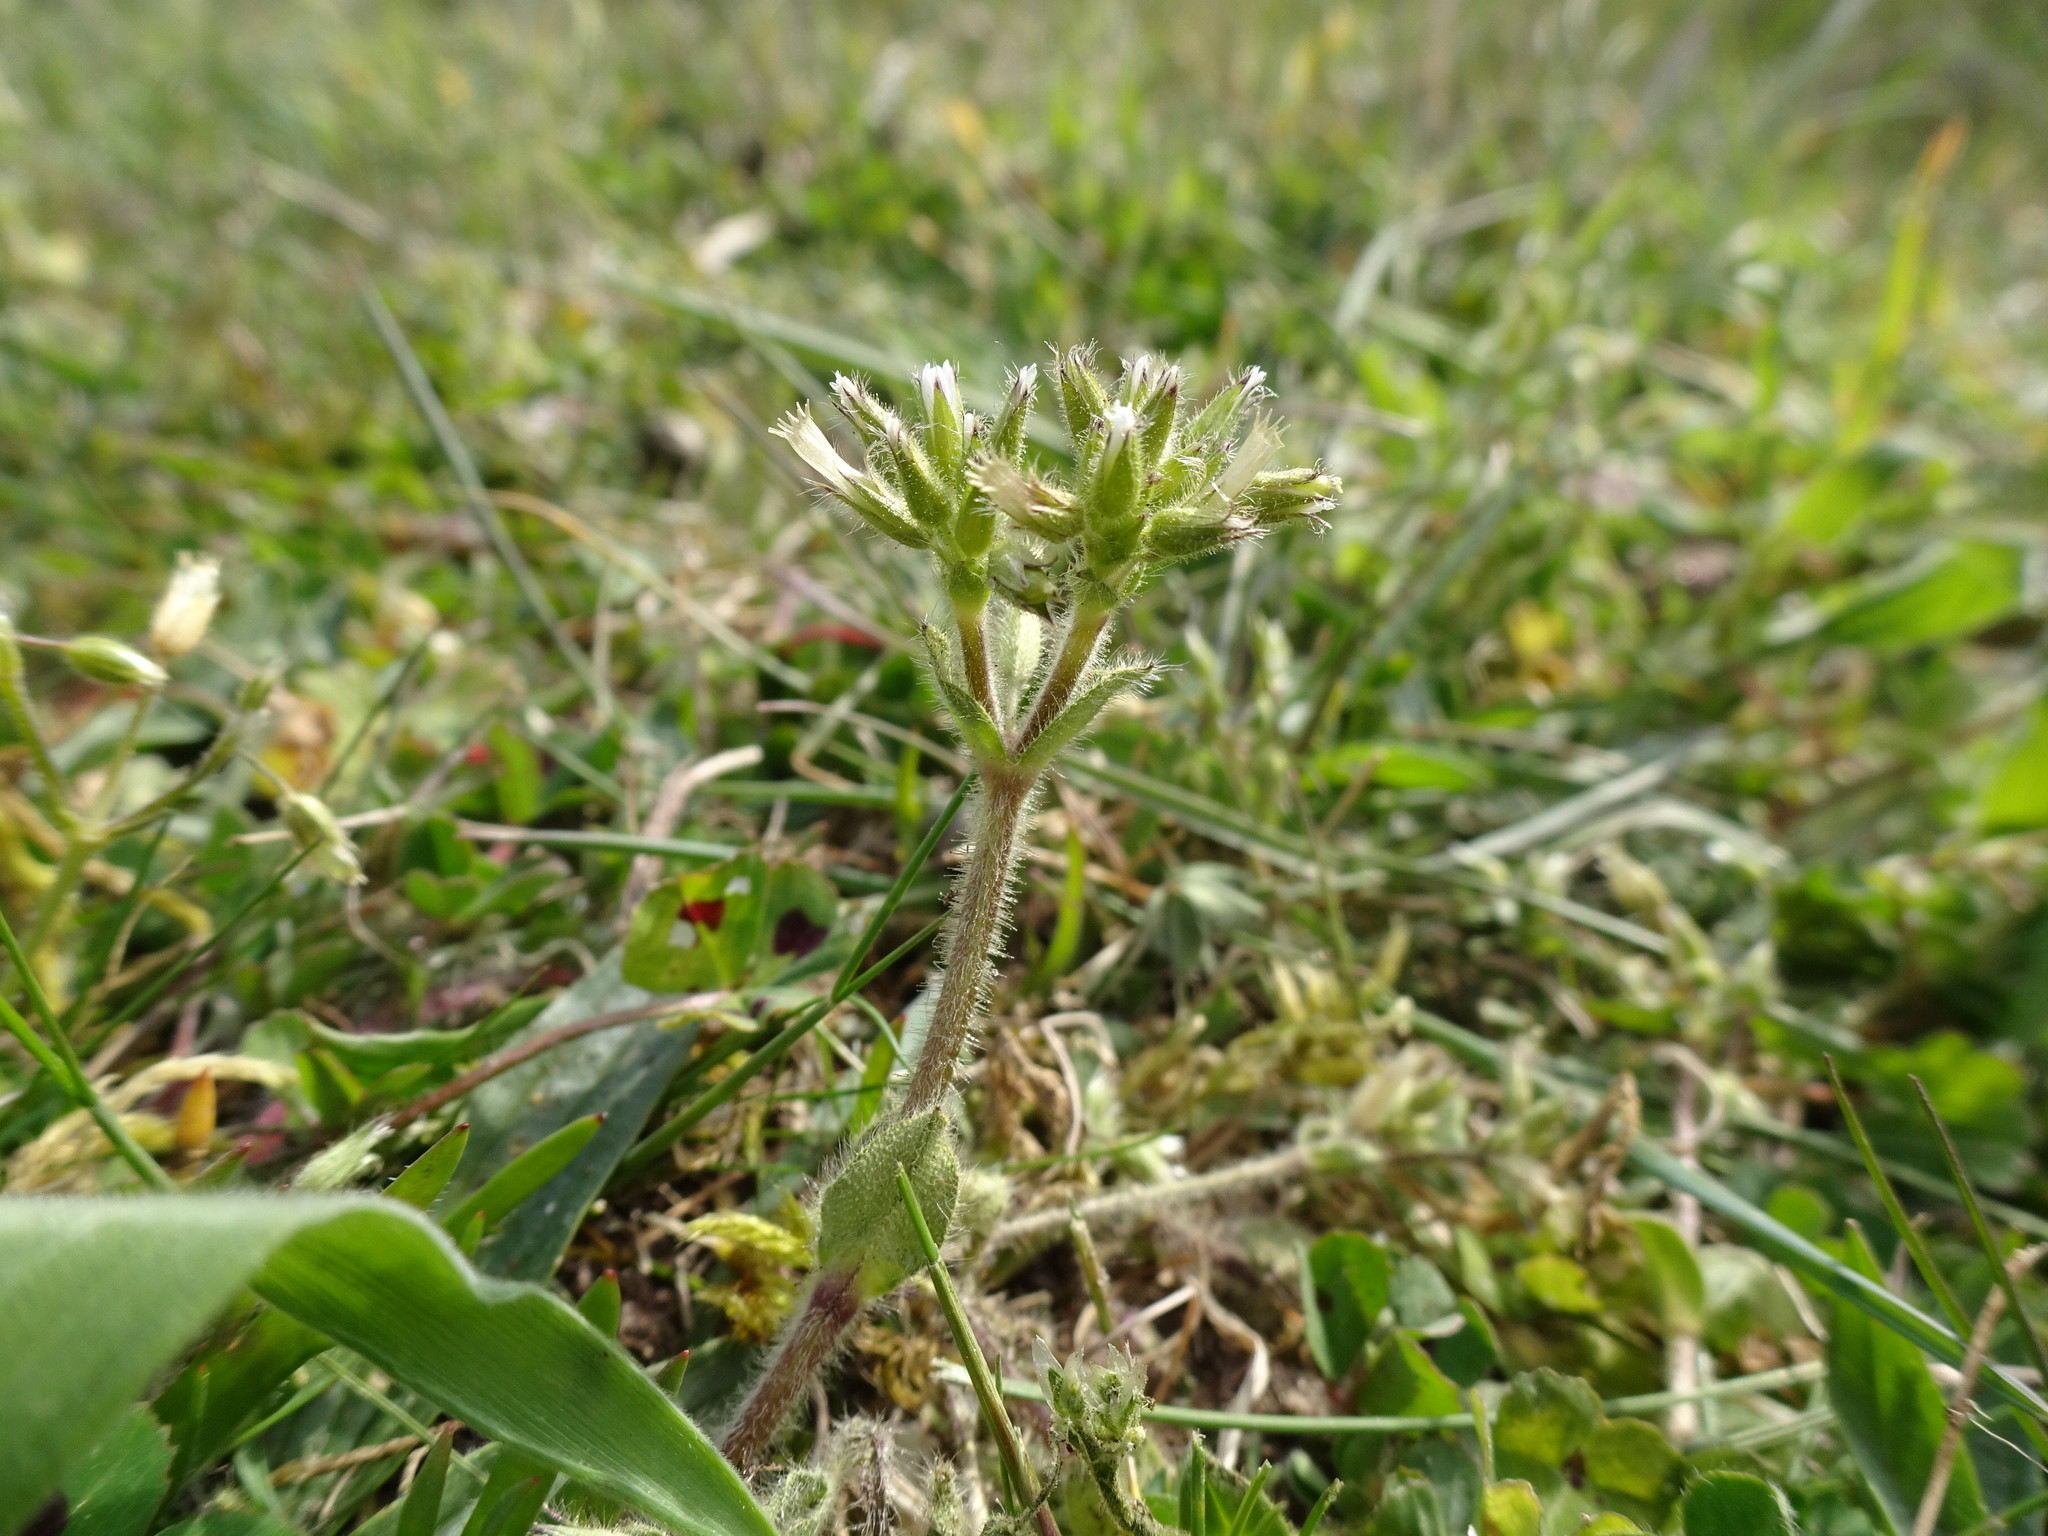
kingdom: Plantae
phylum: Tracheophyta
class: Magnoliopsida
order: Caryophyllales
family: Caryophyllaceae
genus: Cerastium
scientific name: Cerastium glomeratum
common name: Sticky chickweed
